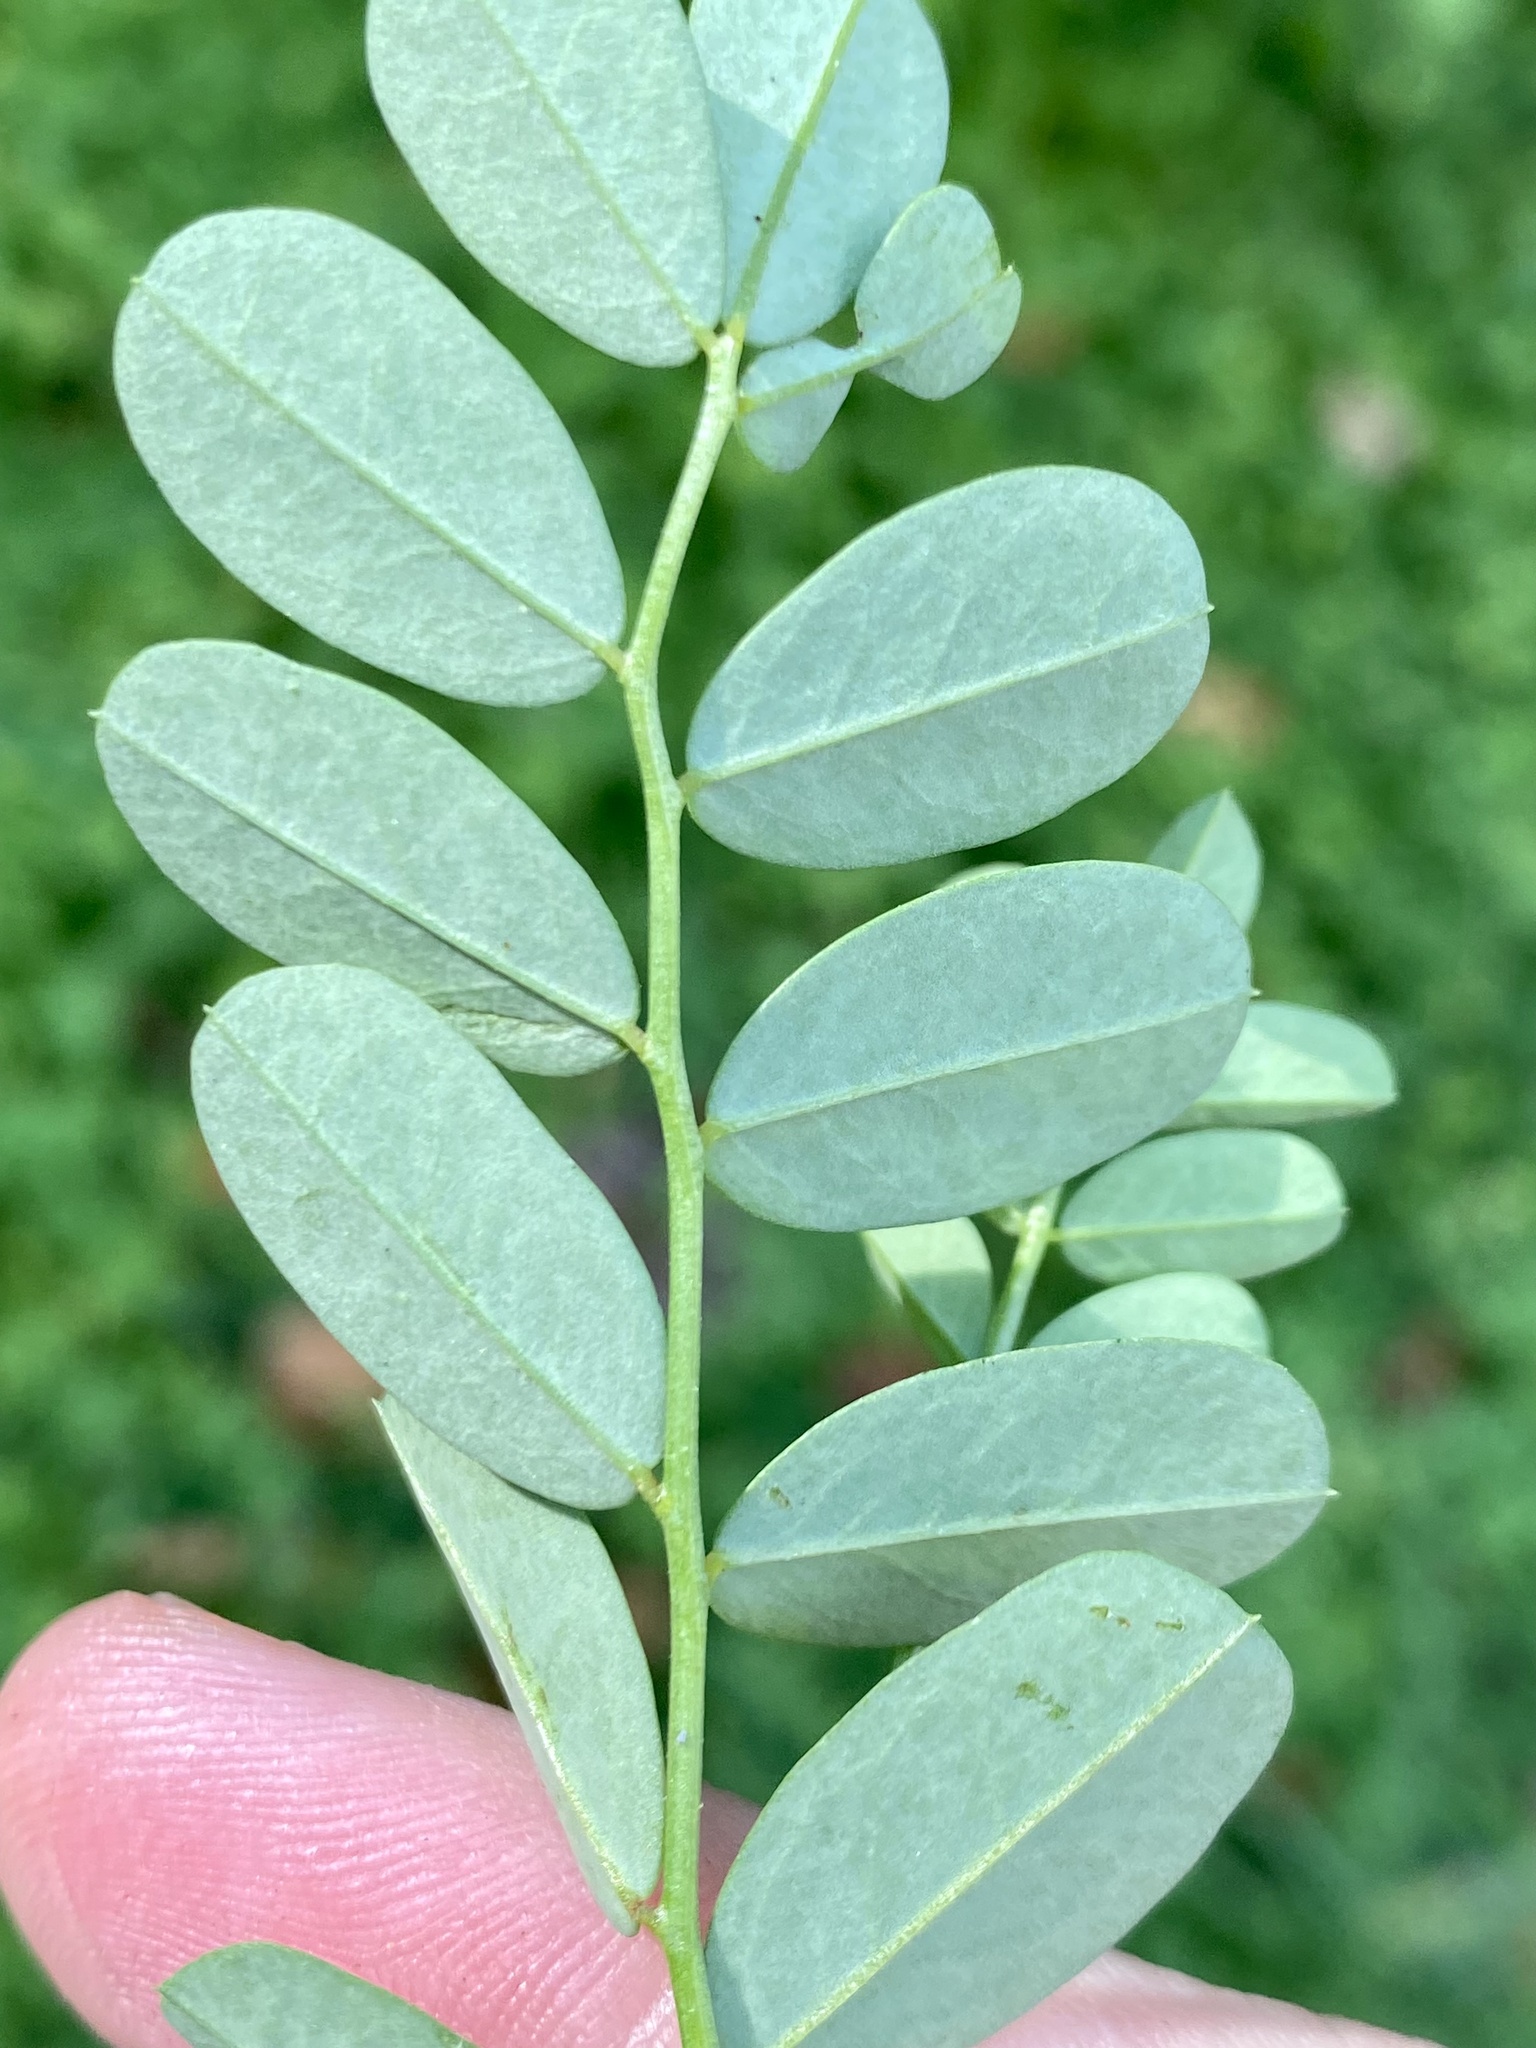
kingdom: Plantae
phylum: Tracheophyta
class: Magnoliopsida
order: Fabales
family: Fabaceae
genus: Coronilla
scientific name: Coronilla varia
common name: Crownvetch
